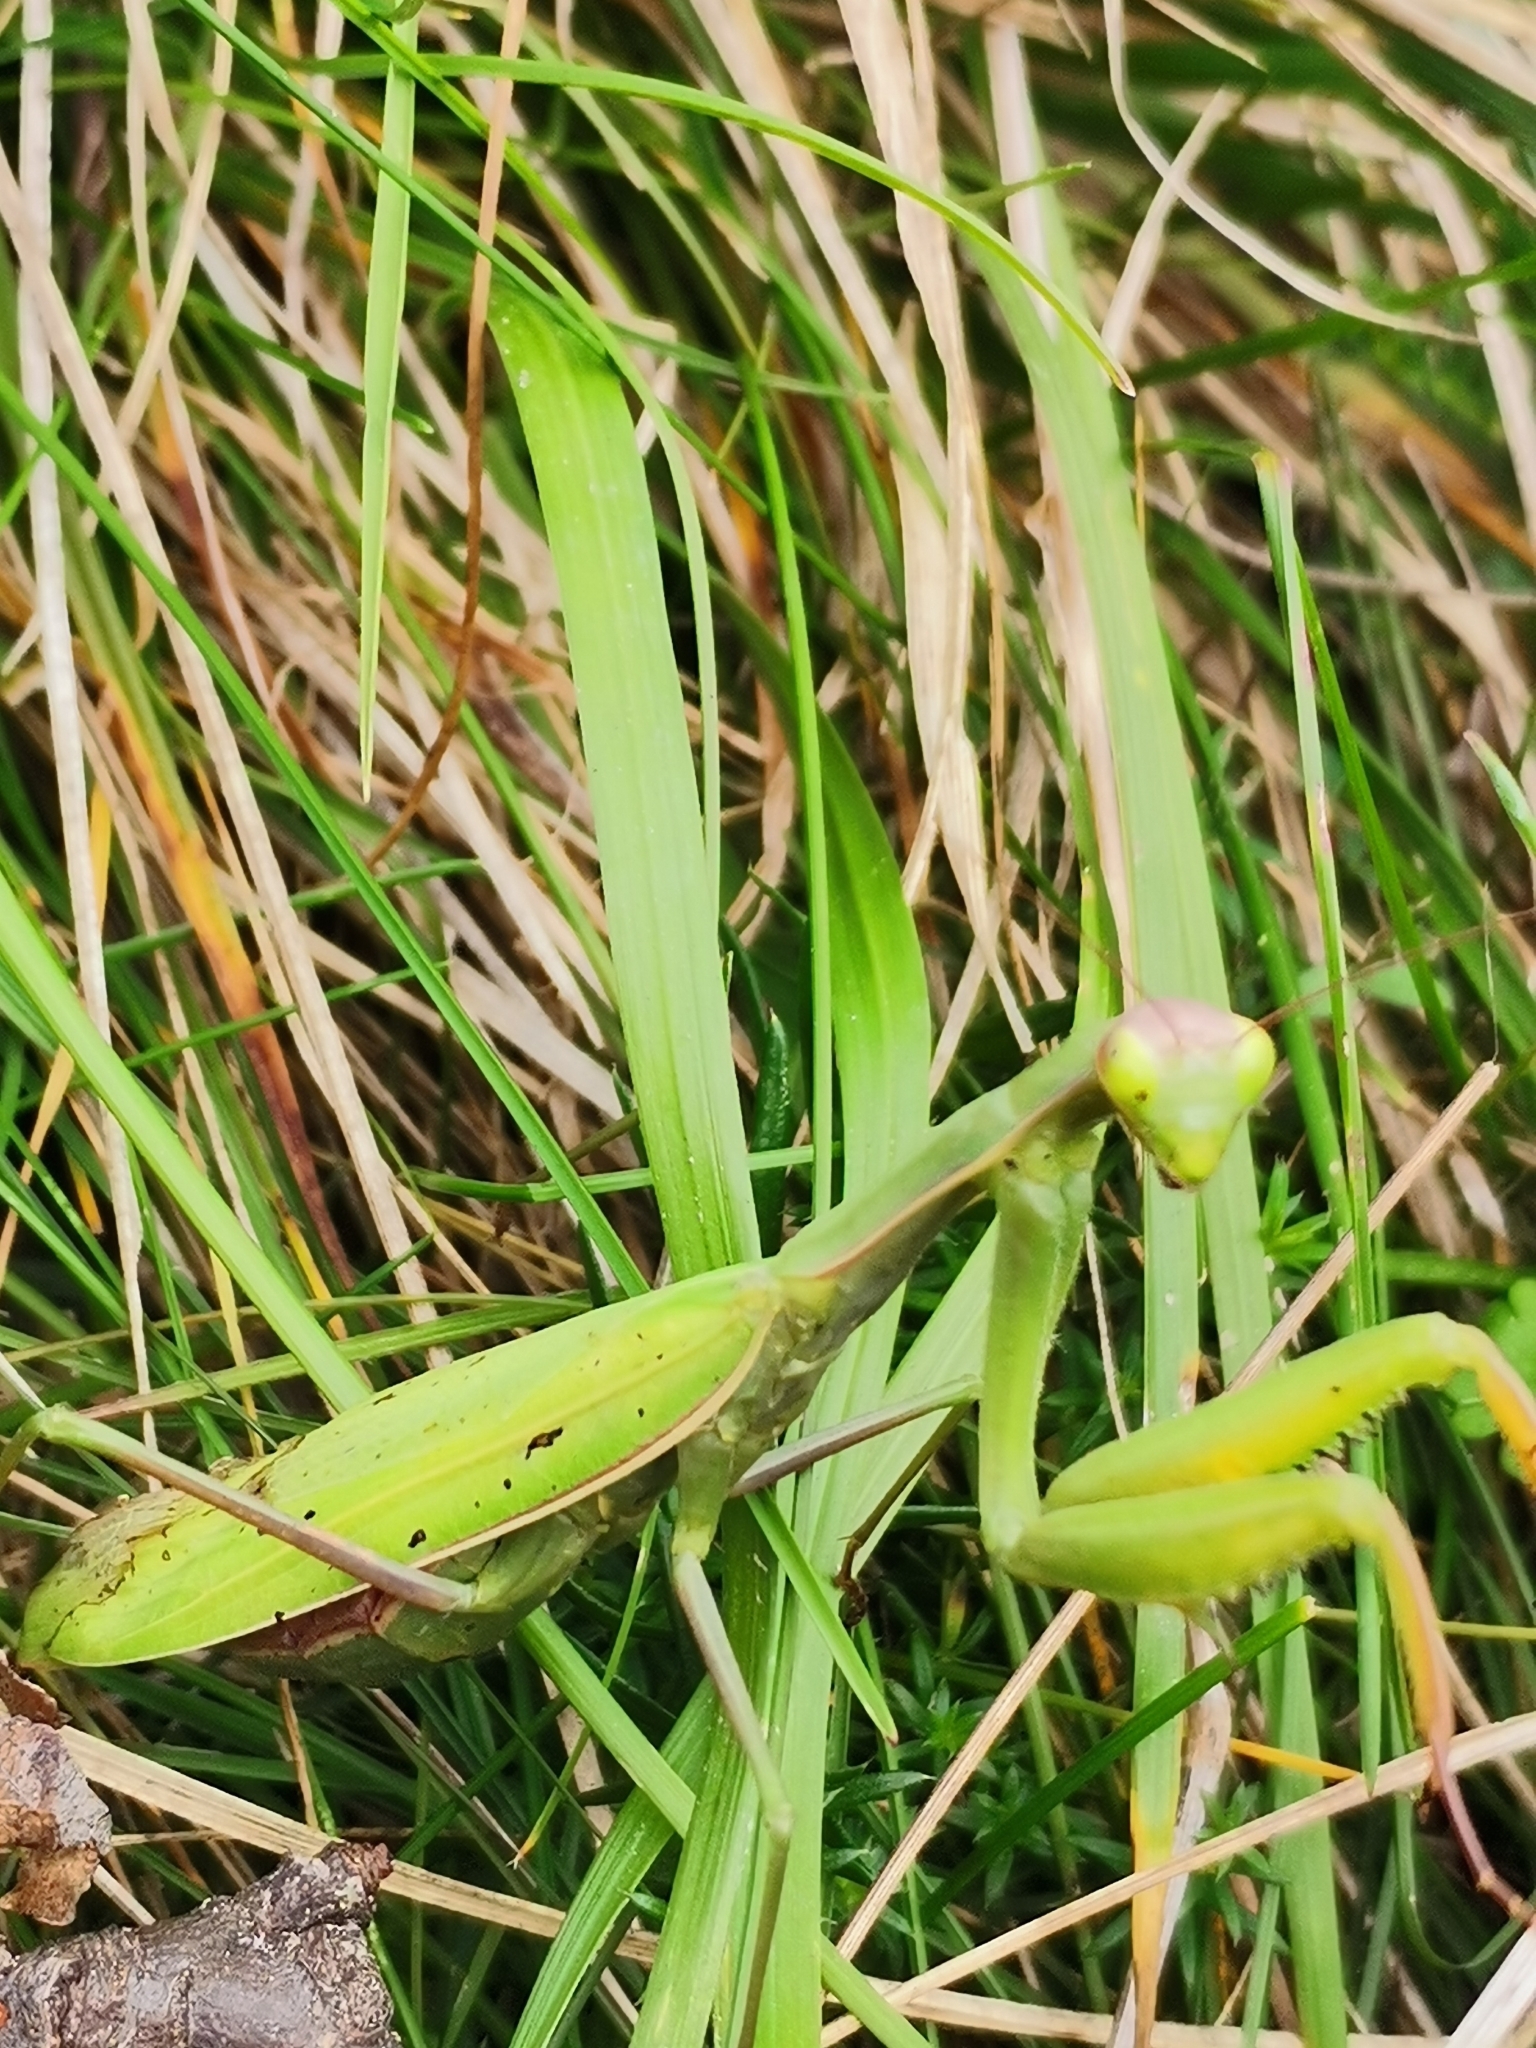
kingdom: Animalia
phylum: Arthropoda
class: Insecta
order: Mantodea
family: Mantidae
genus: Mantis
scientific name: Mantis religiosa
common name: Praying mantis
